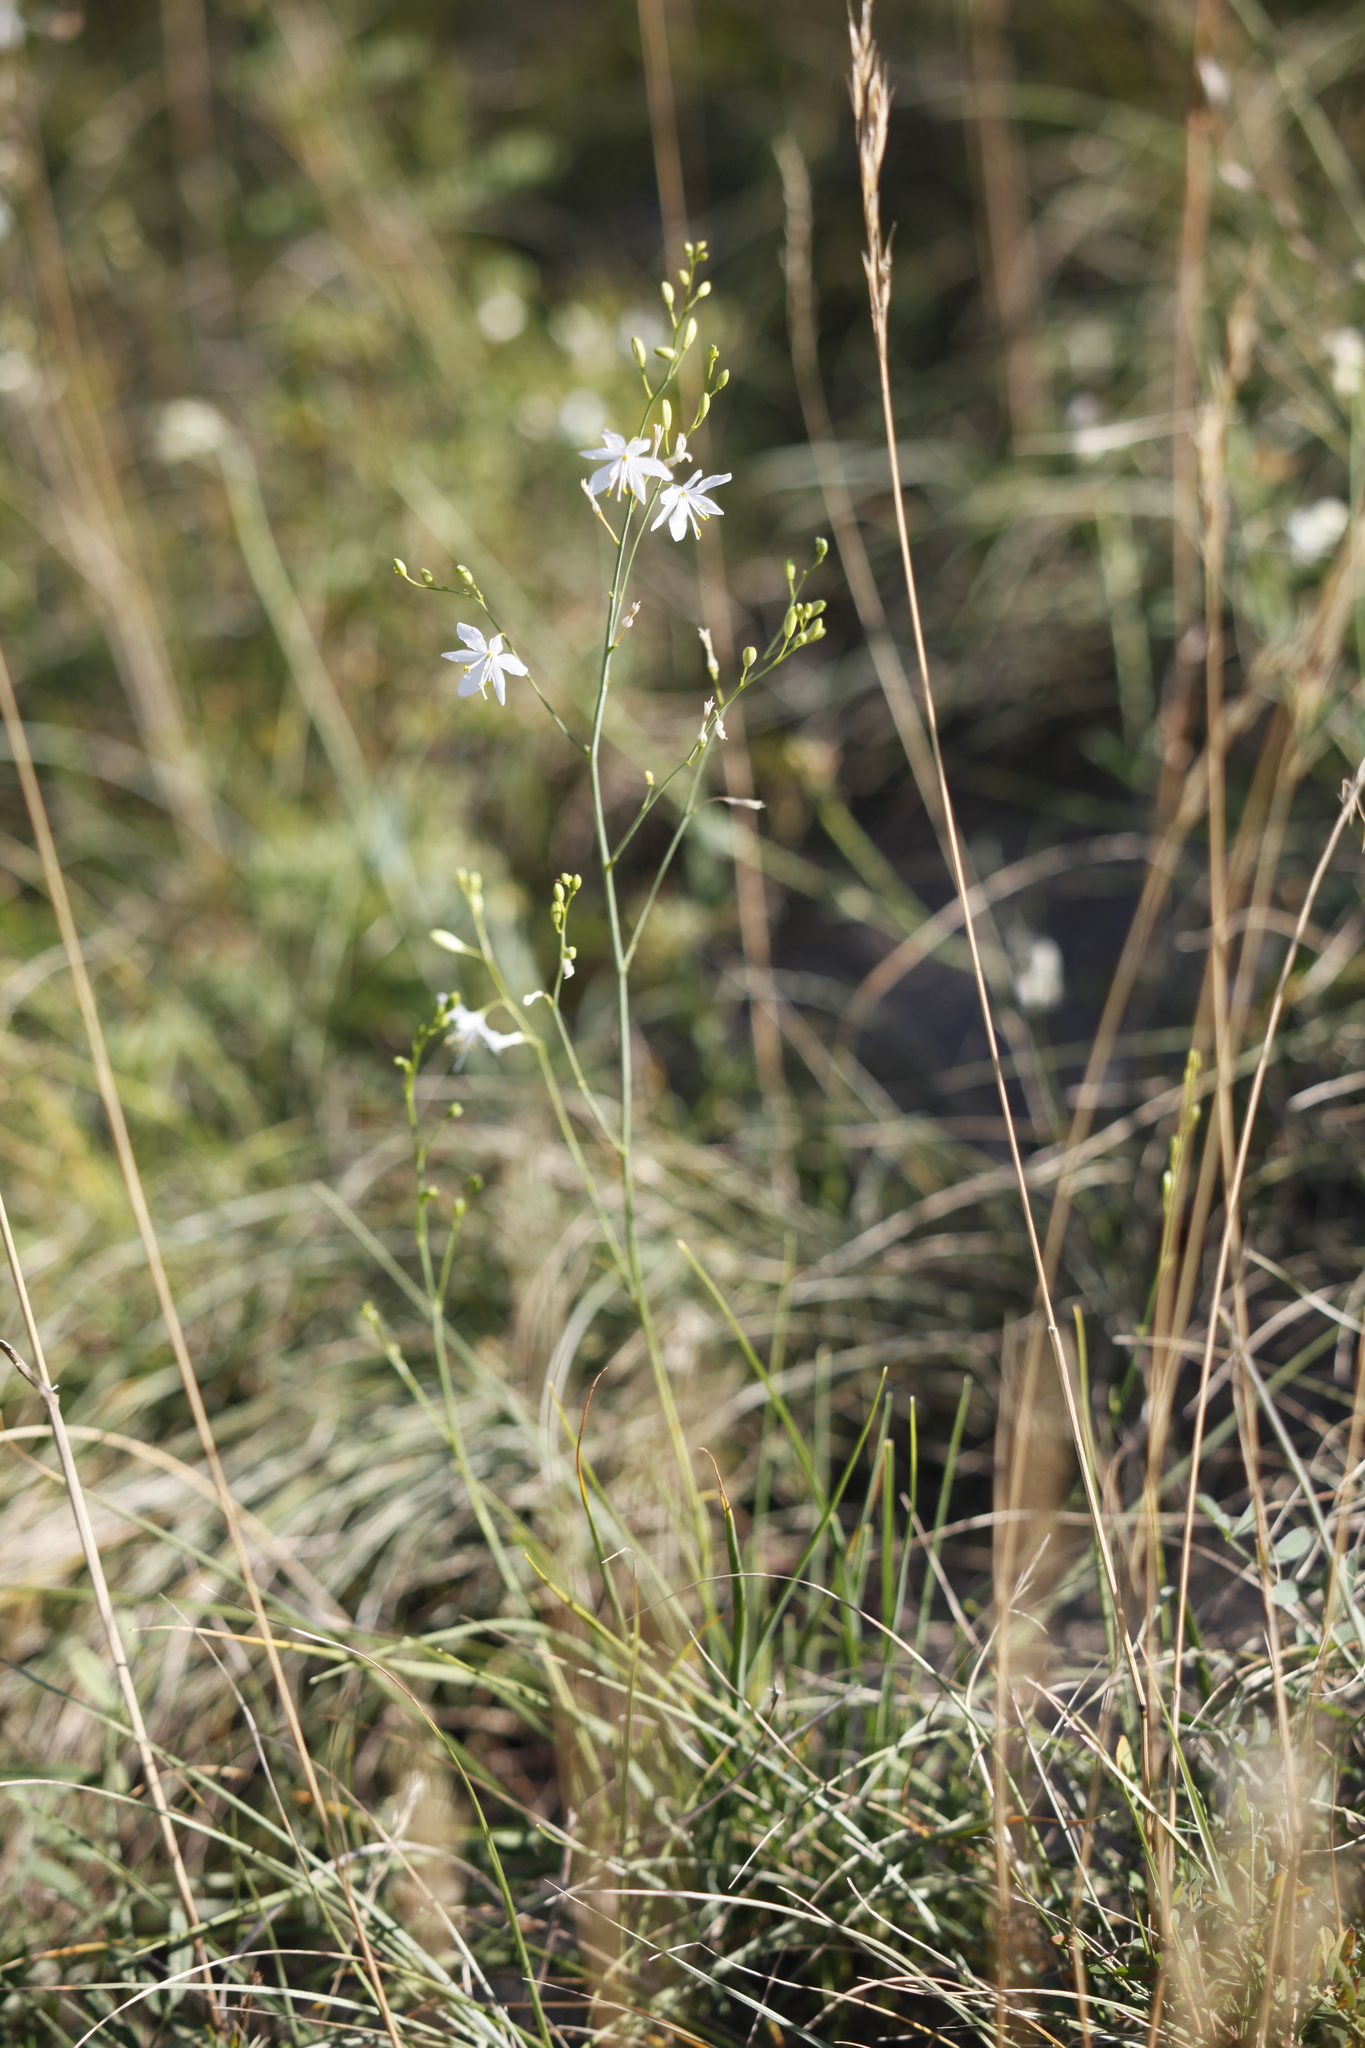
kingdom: Plantae
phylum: Tracheophyta
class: Liliopsida
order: Asparagales
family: Asparagaceae
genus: Anthericum
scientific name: Anthericum ramosum
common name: Branched st. bernard's-lily
